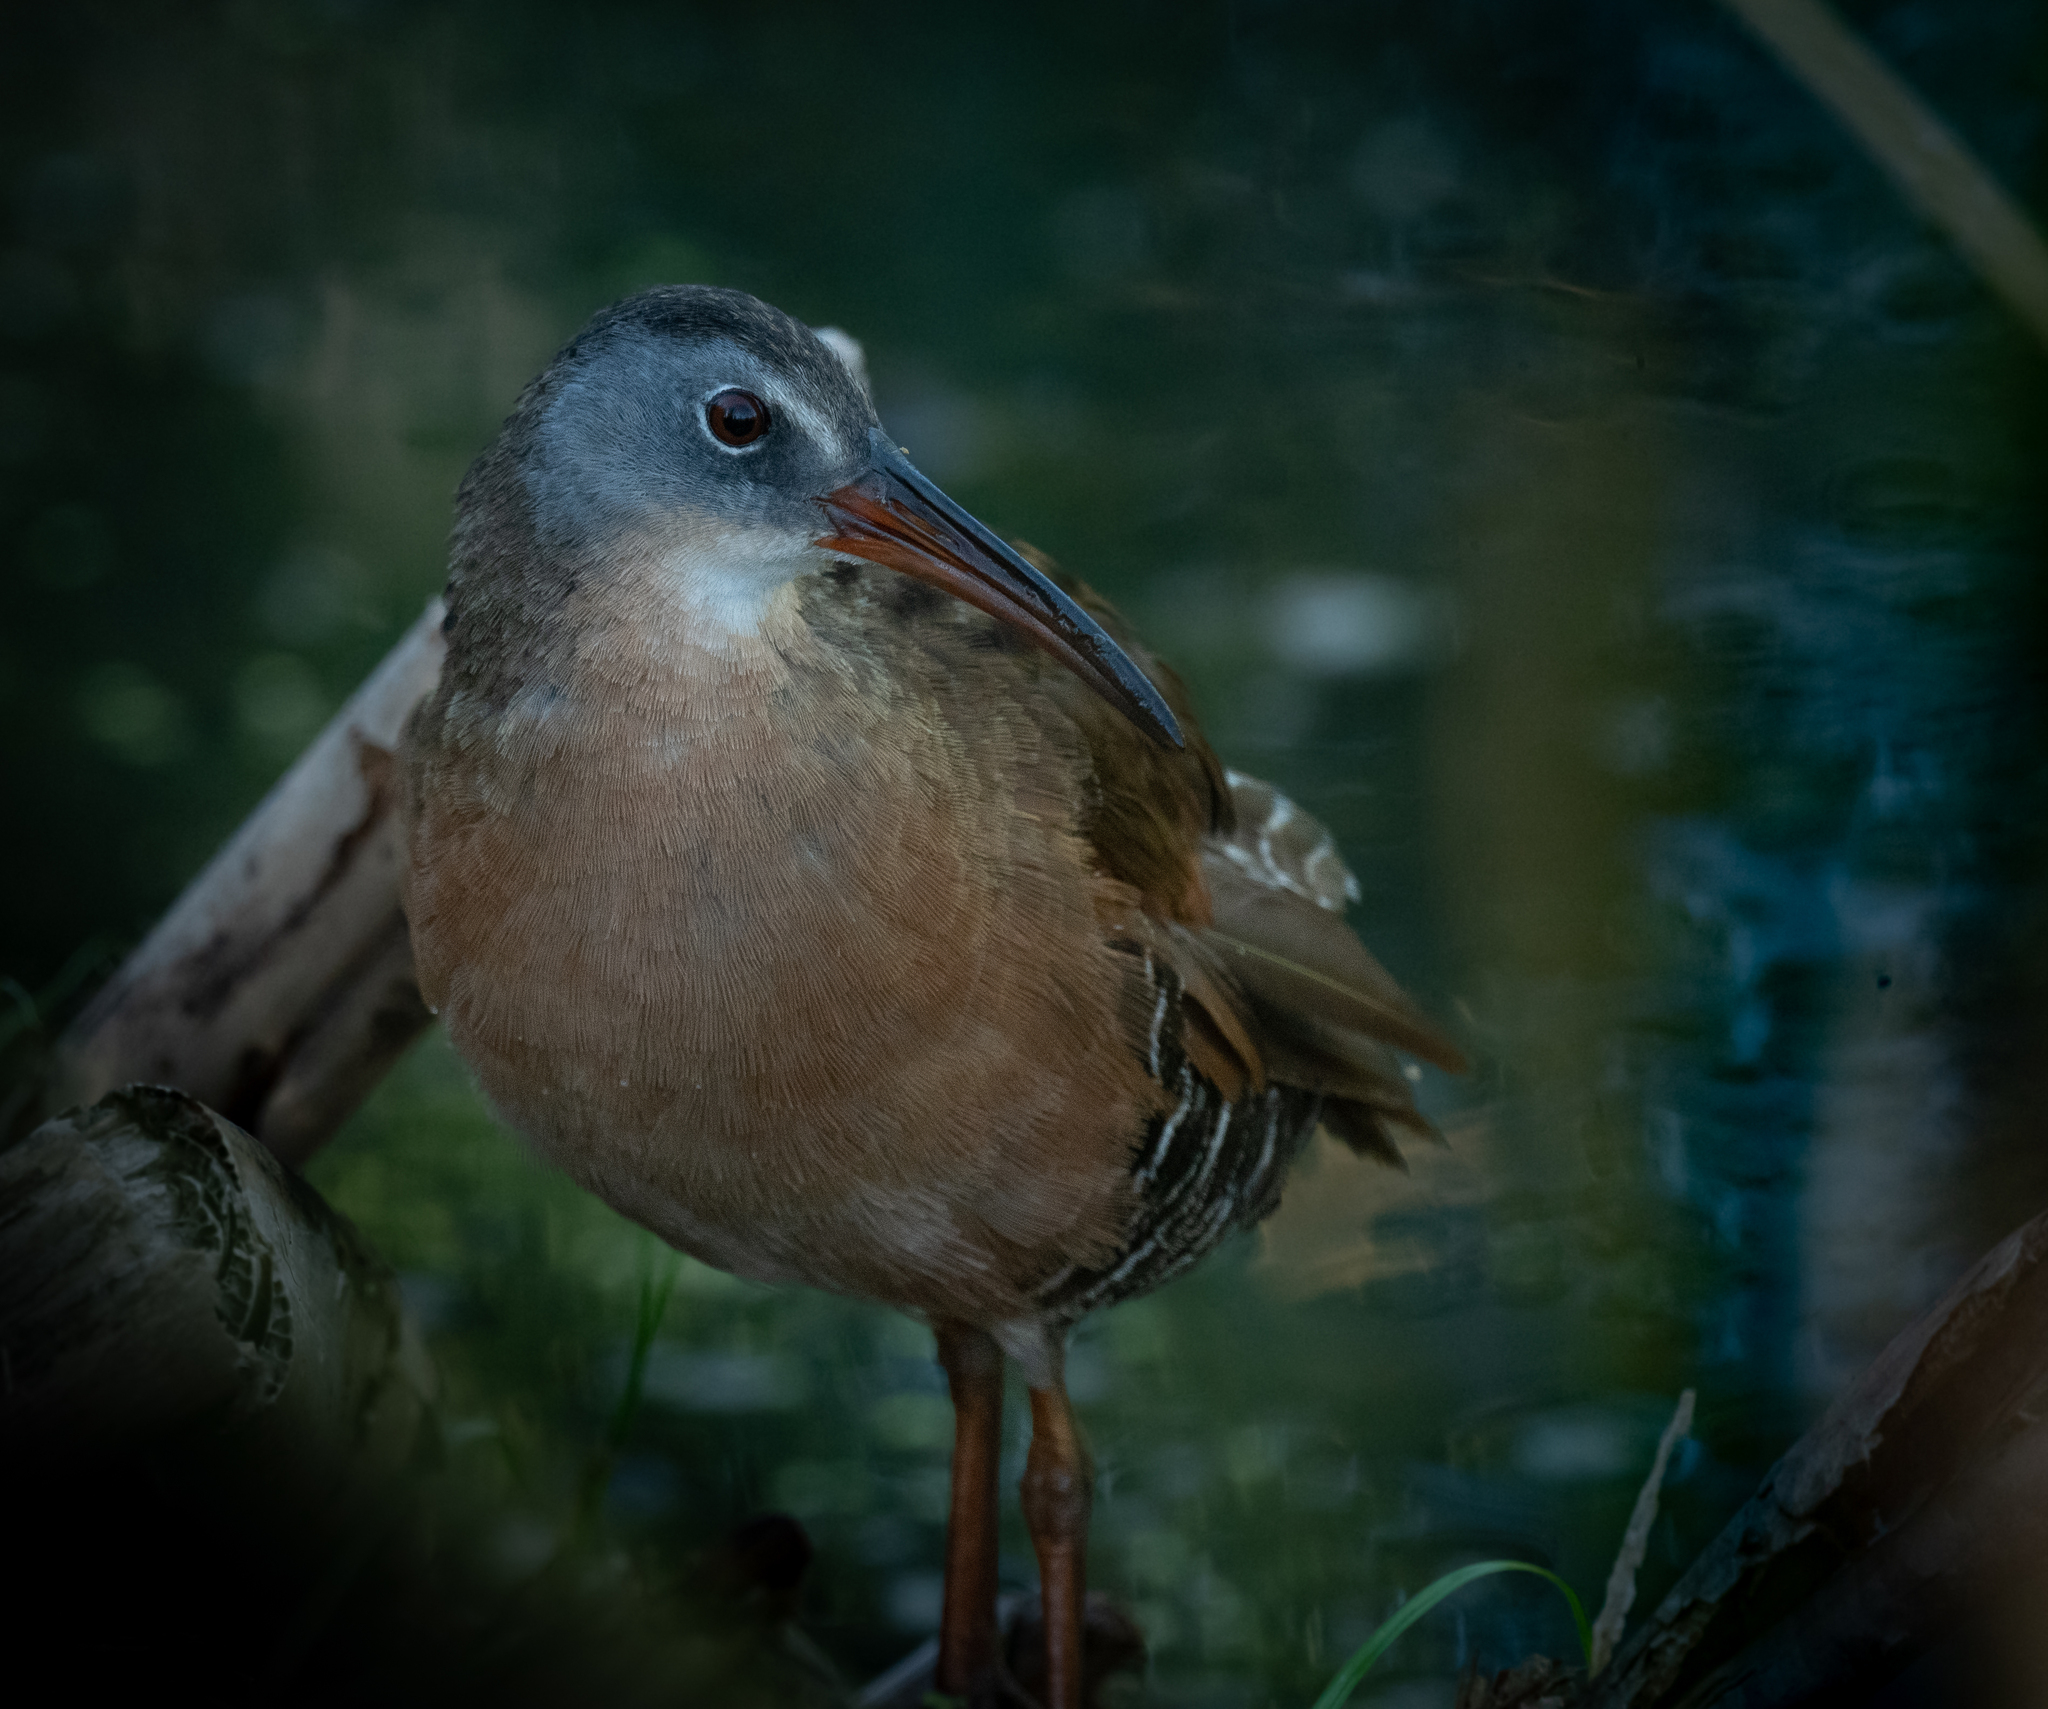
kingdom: Animalia
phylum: Chordata
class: Aves
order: Gruiformes
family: Rallidae
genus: Rallus
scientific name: Rallus limicola
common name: Virginia rail
